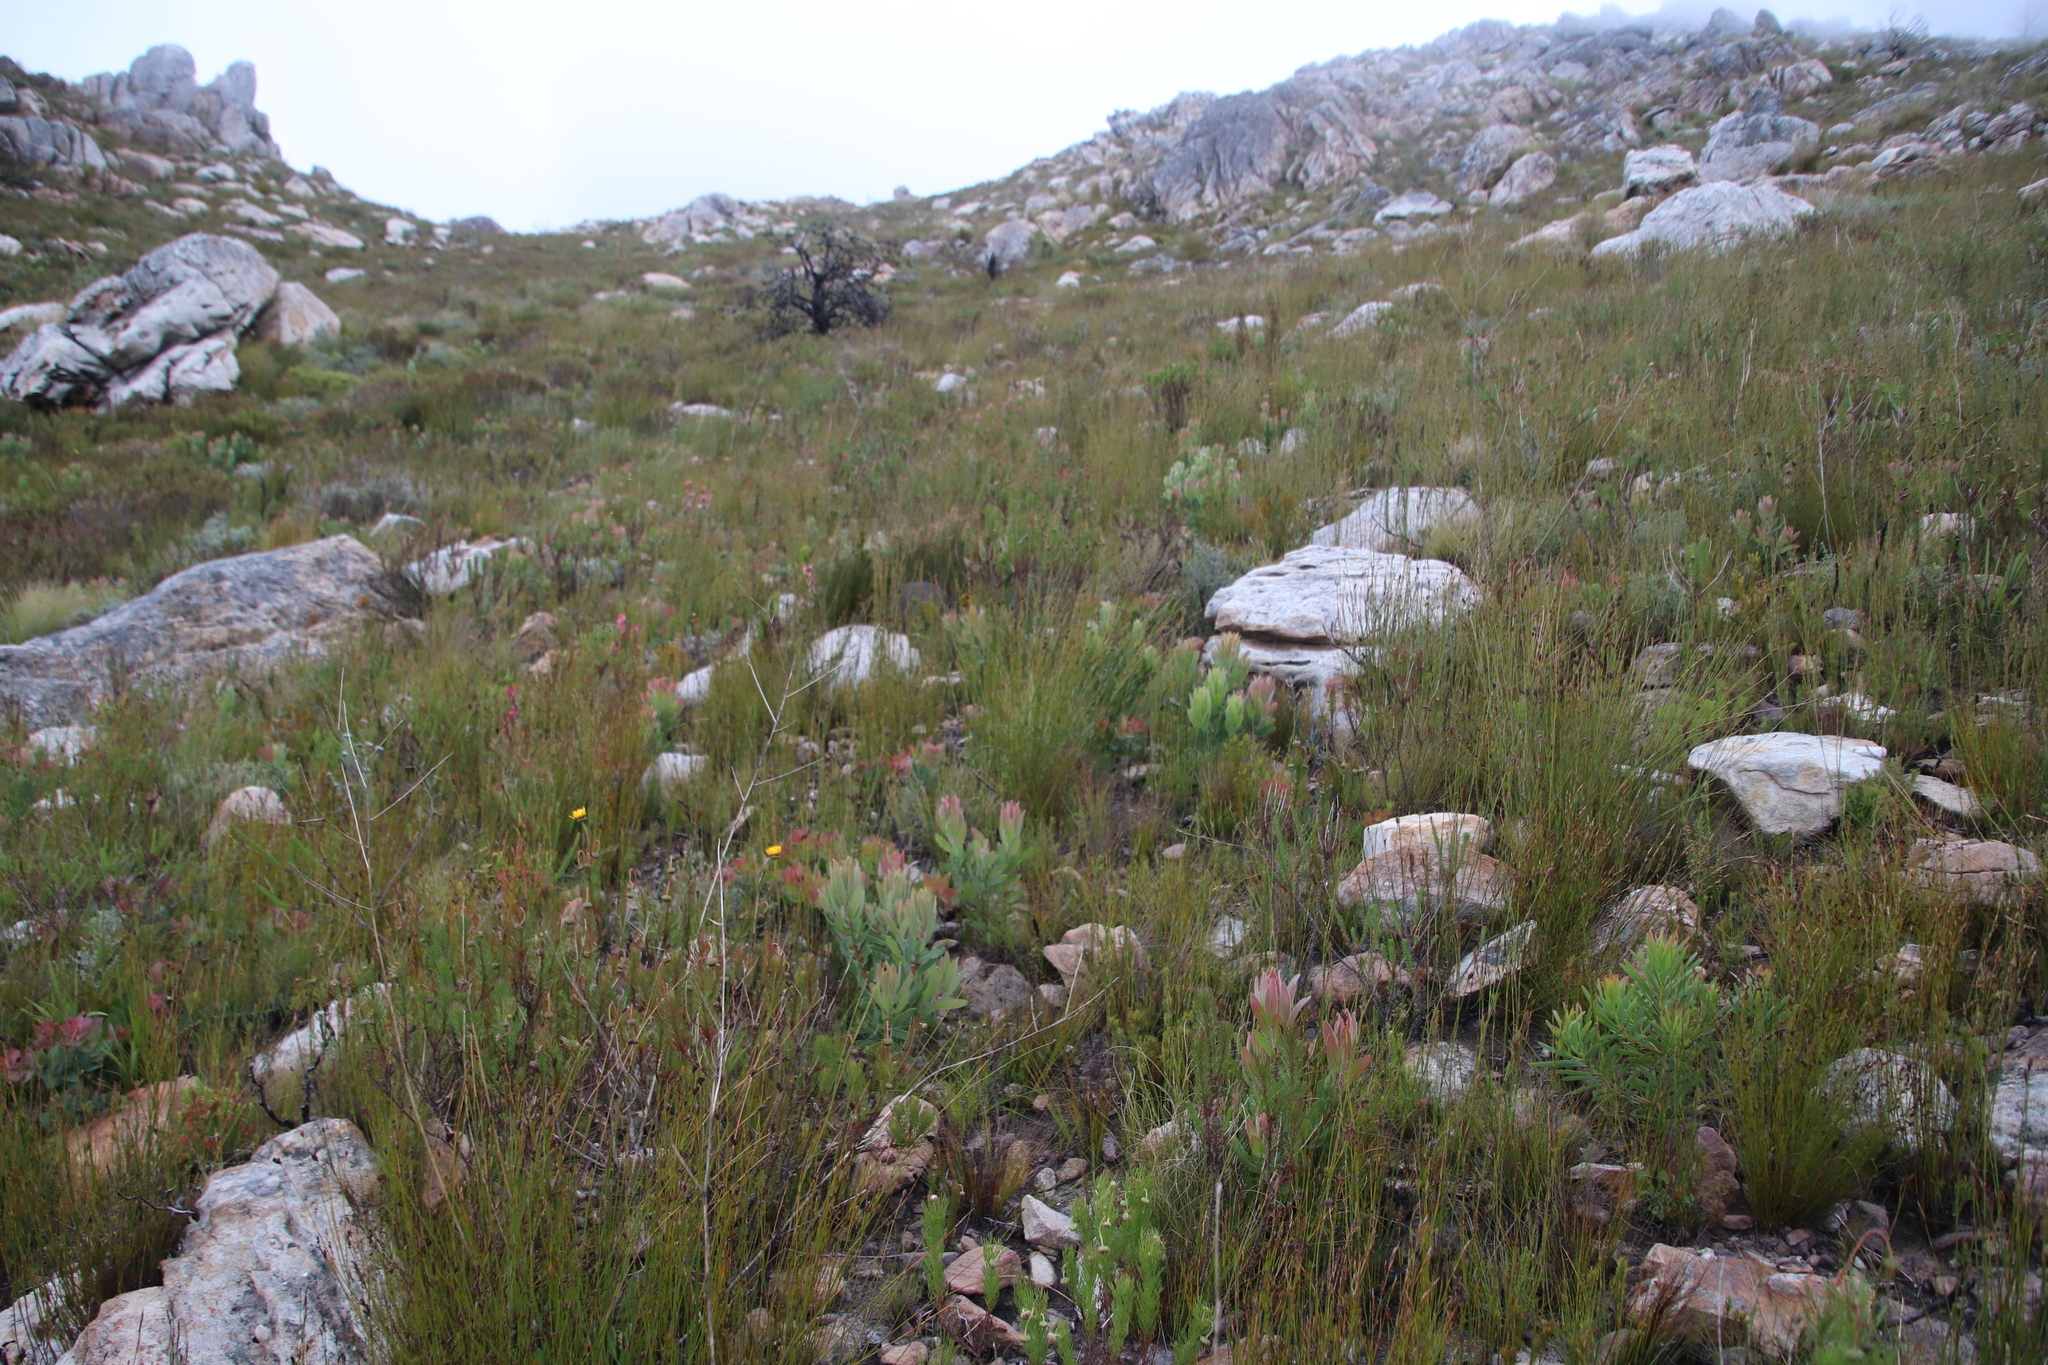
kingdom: Plantae
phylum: Tracheophyta
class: Magnoliopsida
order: Proteales
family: Proteaceae
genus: Protea
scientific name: Protea laurifolia
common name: Grey-leaf sugarbsh
